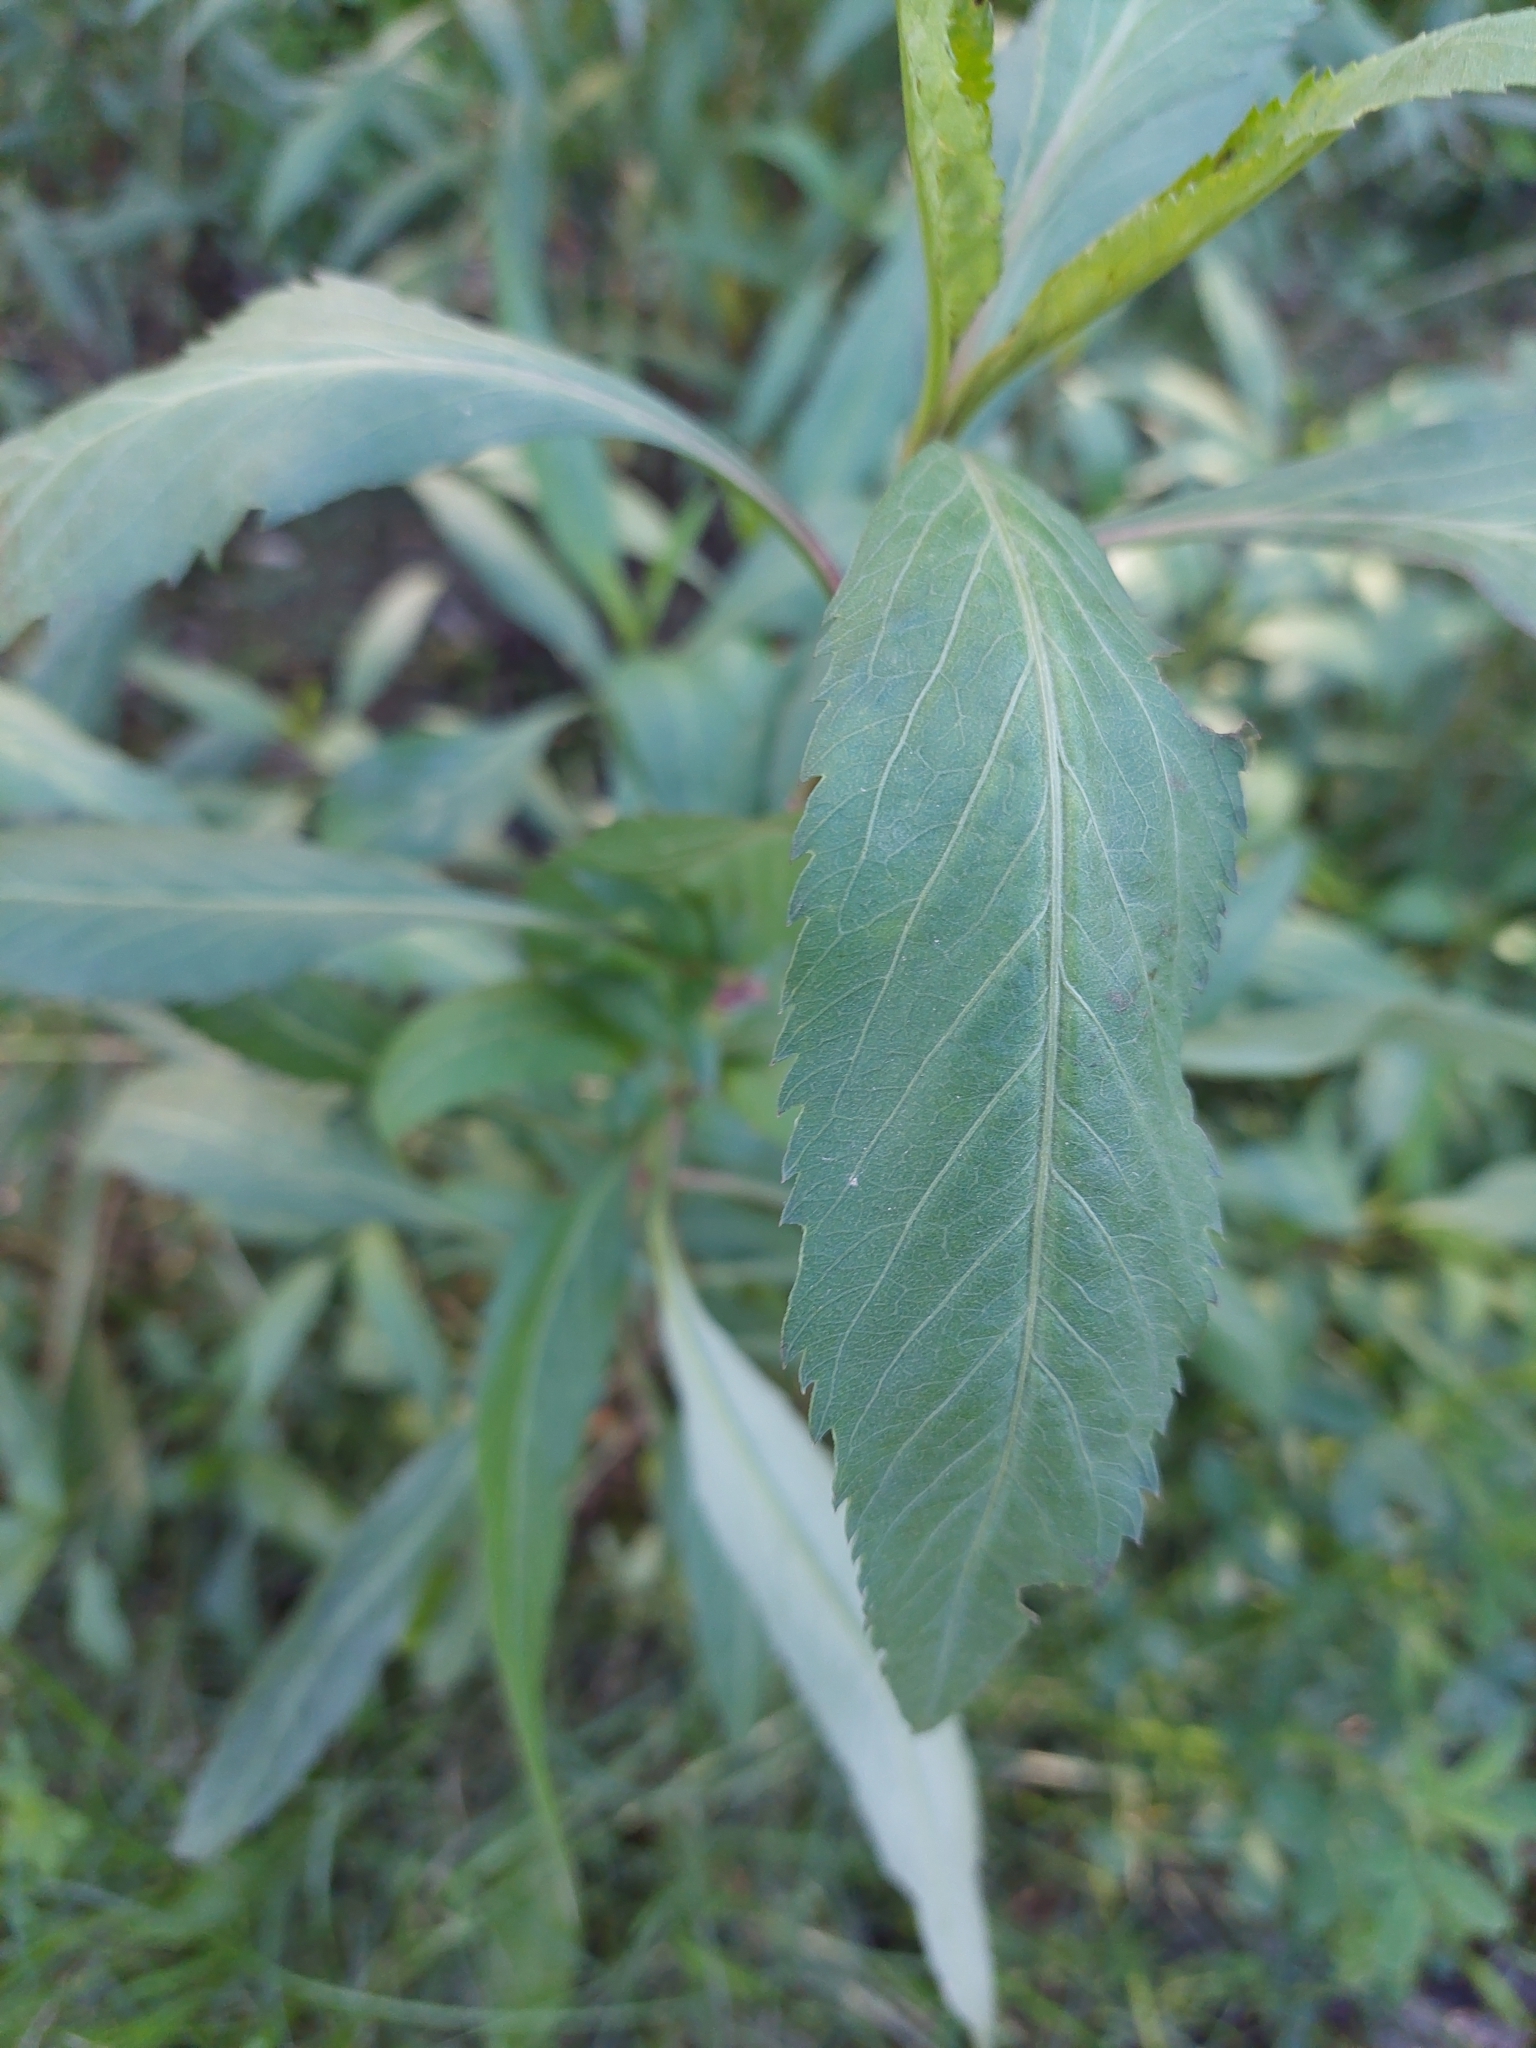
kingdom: Plantae
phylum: Tracheophyta
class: Magnoliopsida
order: Asterales
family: Asteraceae
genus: Bidens
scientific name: Bidens aurea
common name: Arizona beggar-ticks
